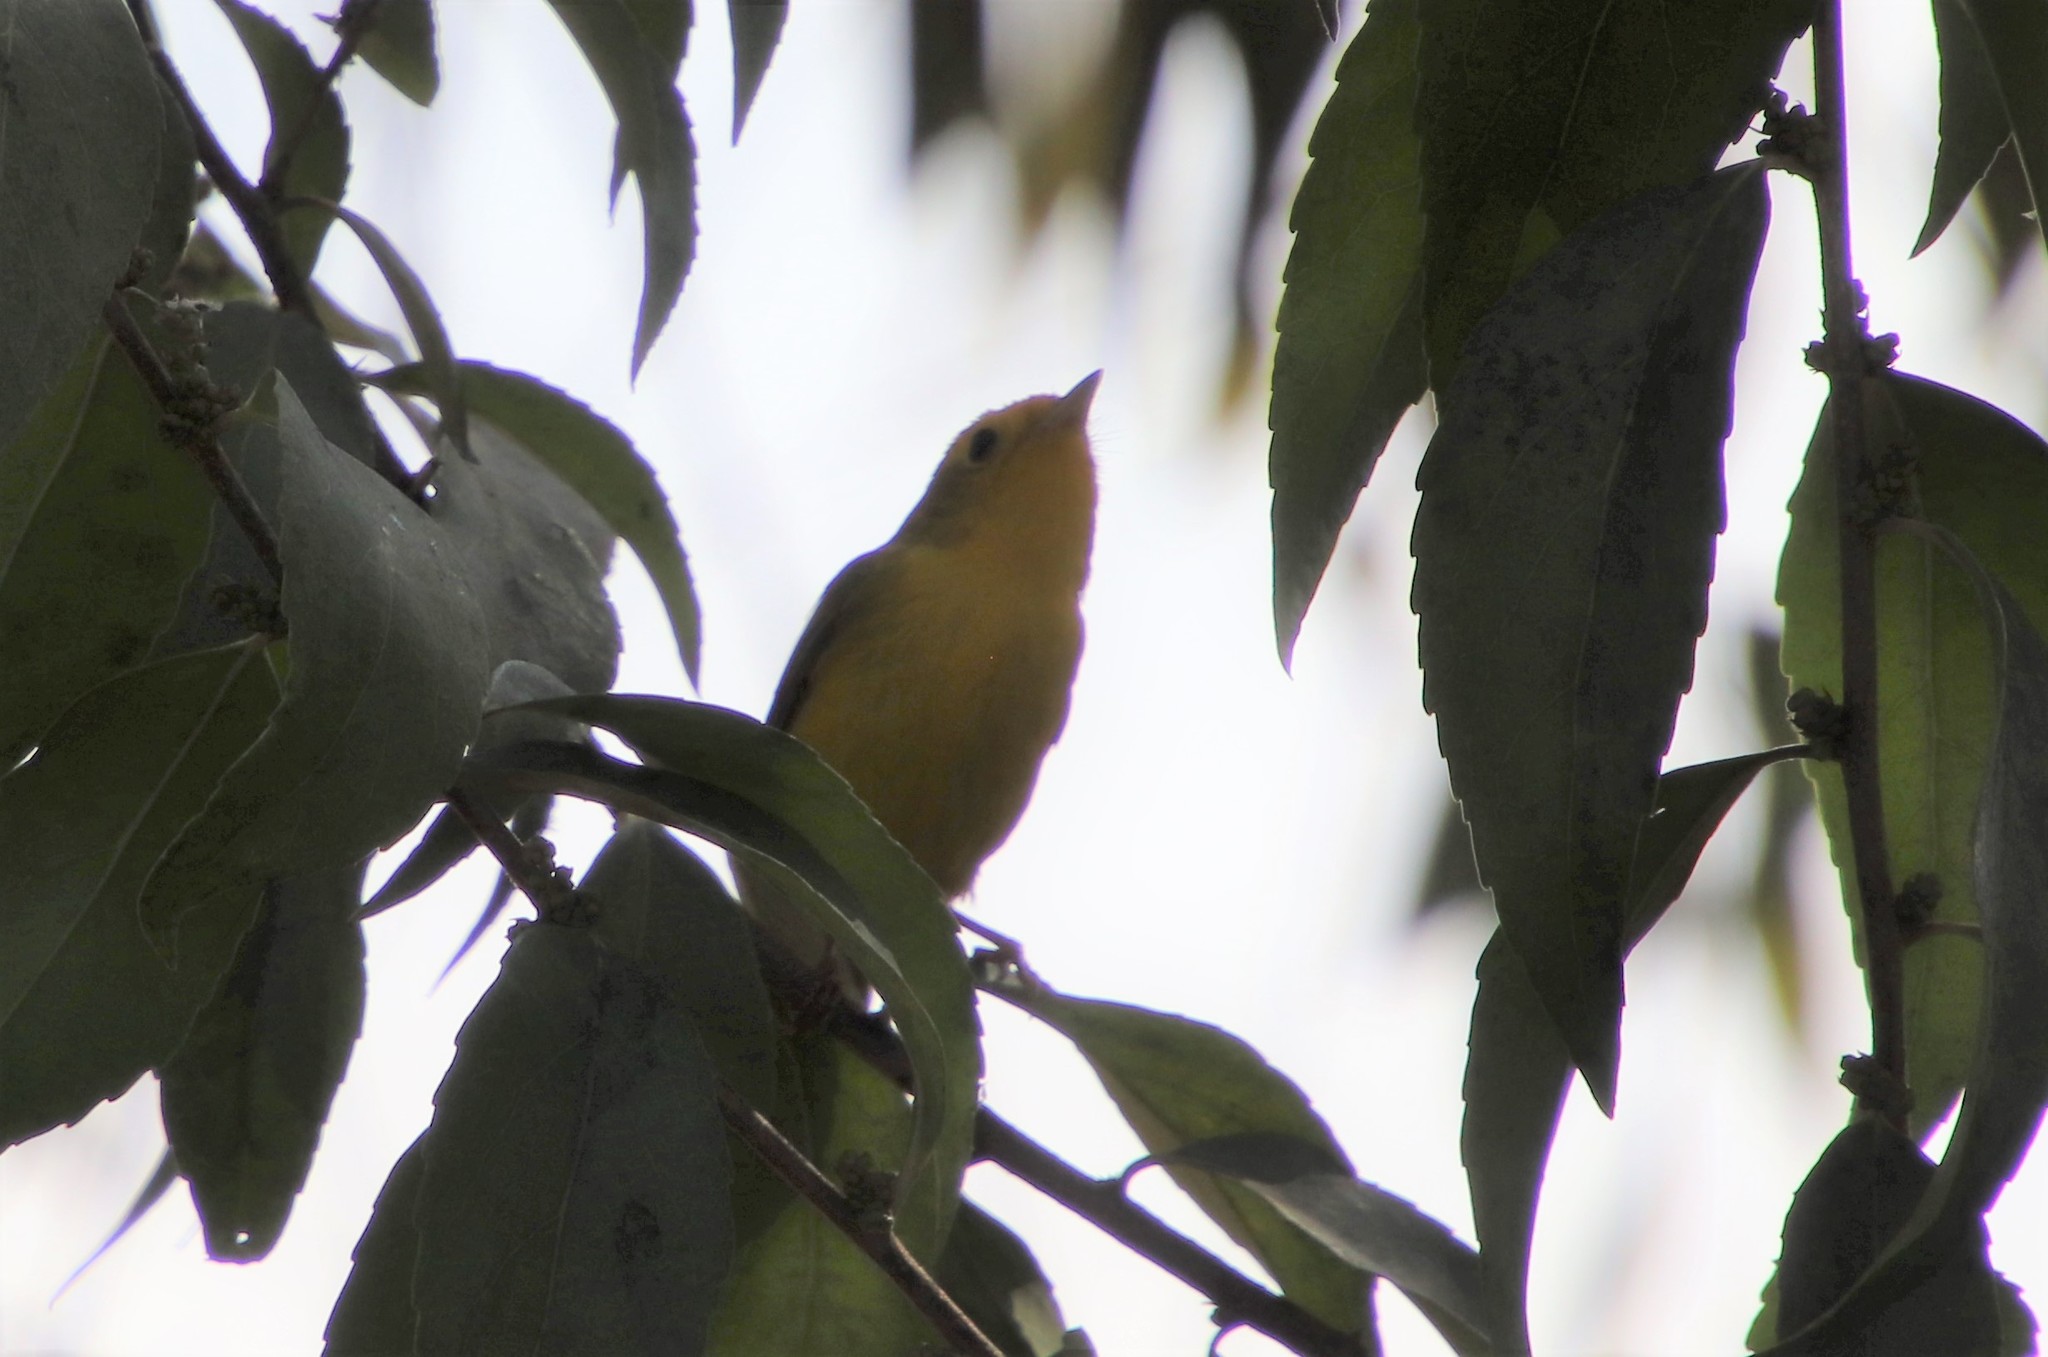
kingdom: Animalia
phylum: Chordata
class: Aves
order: Passeriformes
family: Parulidae
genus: Cardellina
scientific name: Cardellina pusilla
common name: Wilson's warbler
